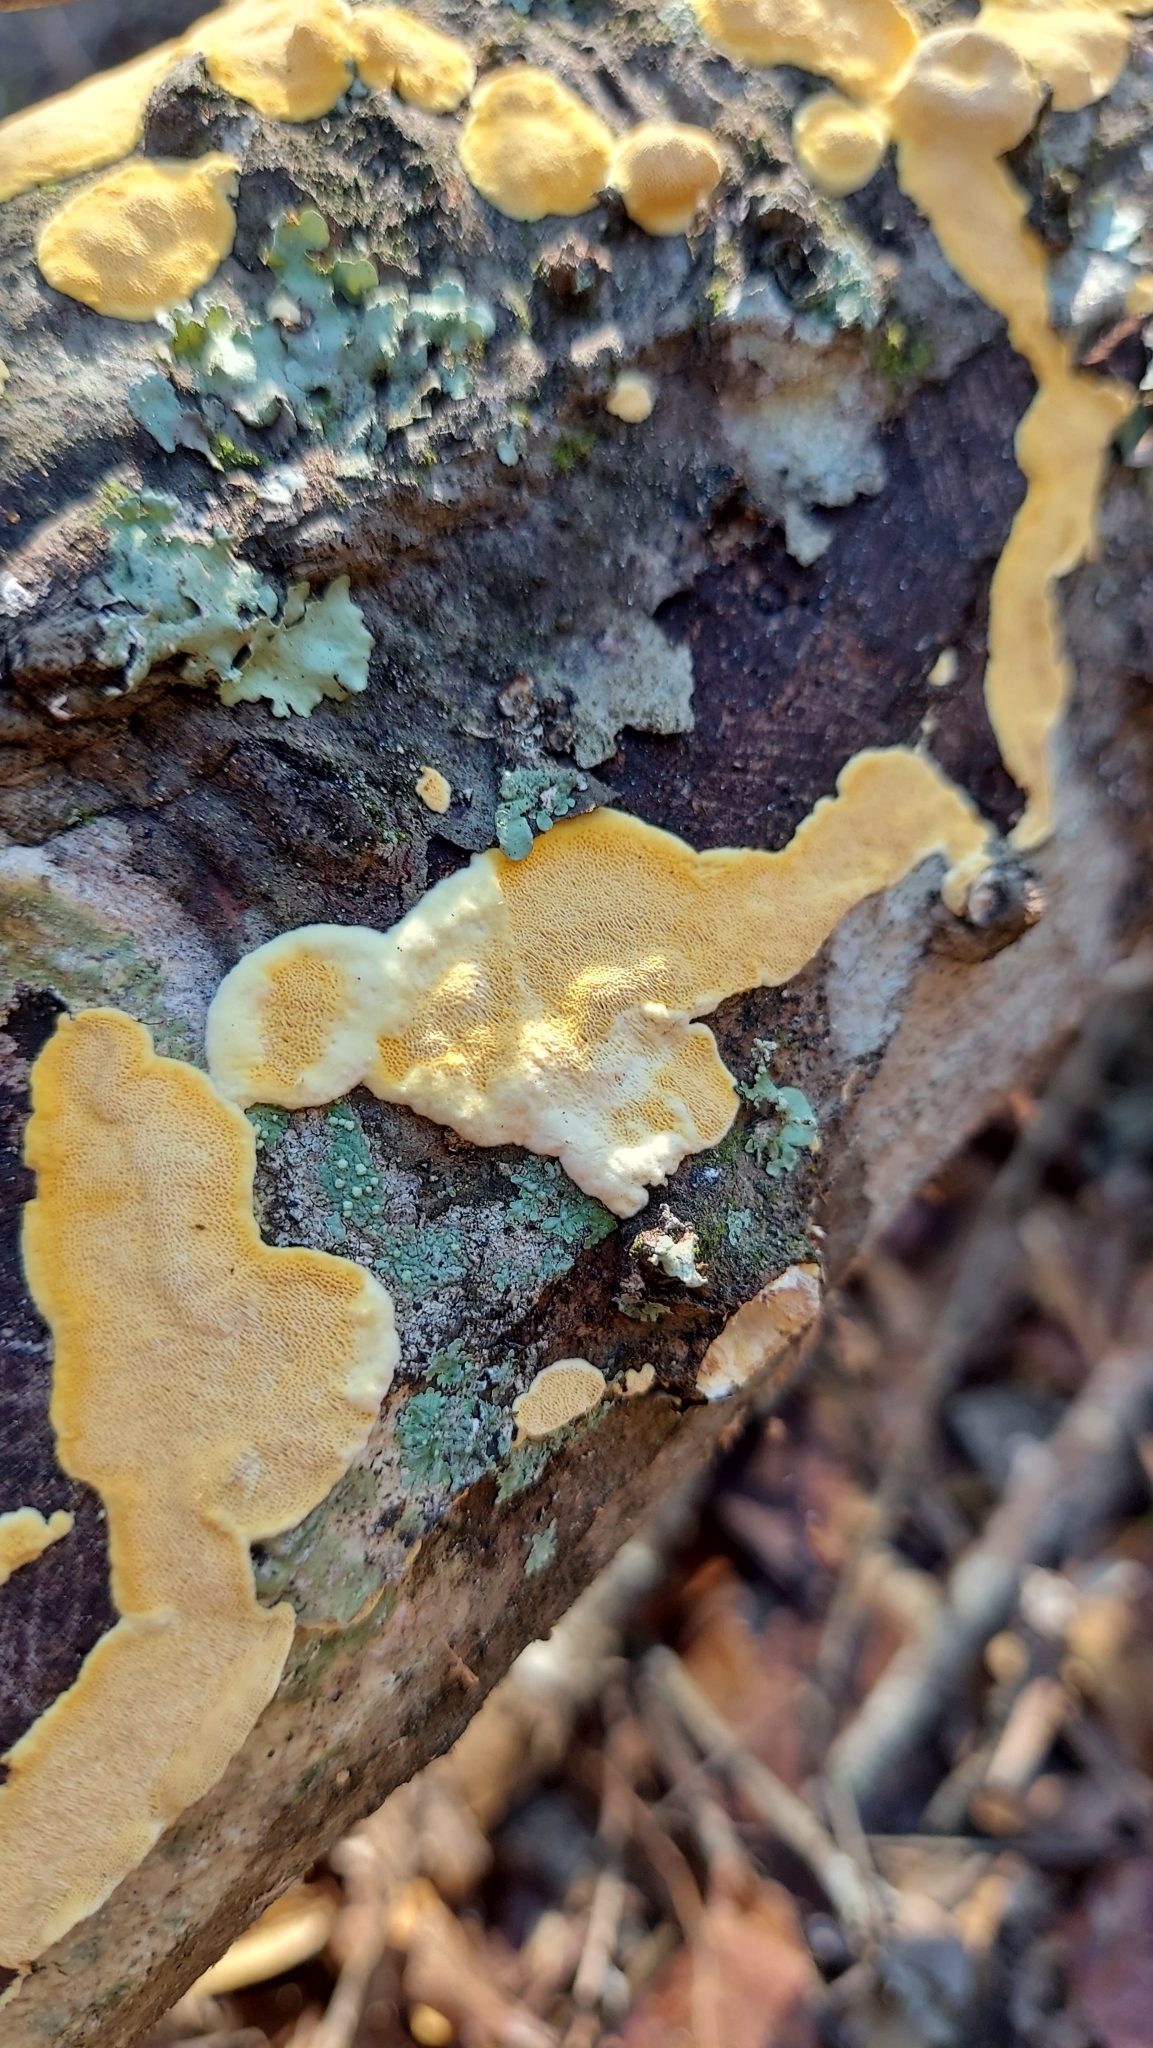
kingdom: Fungi
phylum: Basidiomycota
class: Agaricomycetes
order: Polyporales
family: Fibroporiaceae
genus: Fibroporia
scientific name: Fibroporia radiculosa
